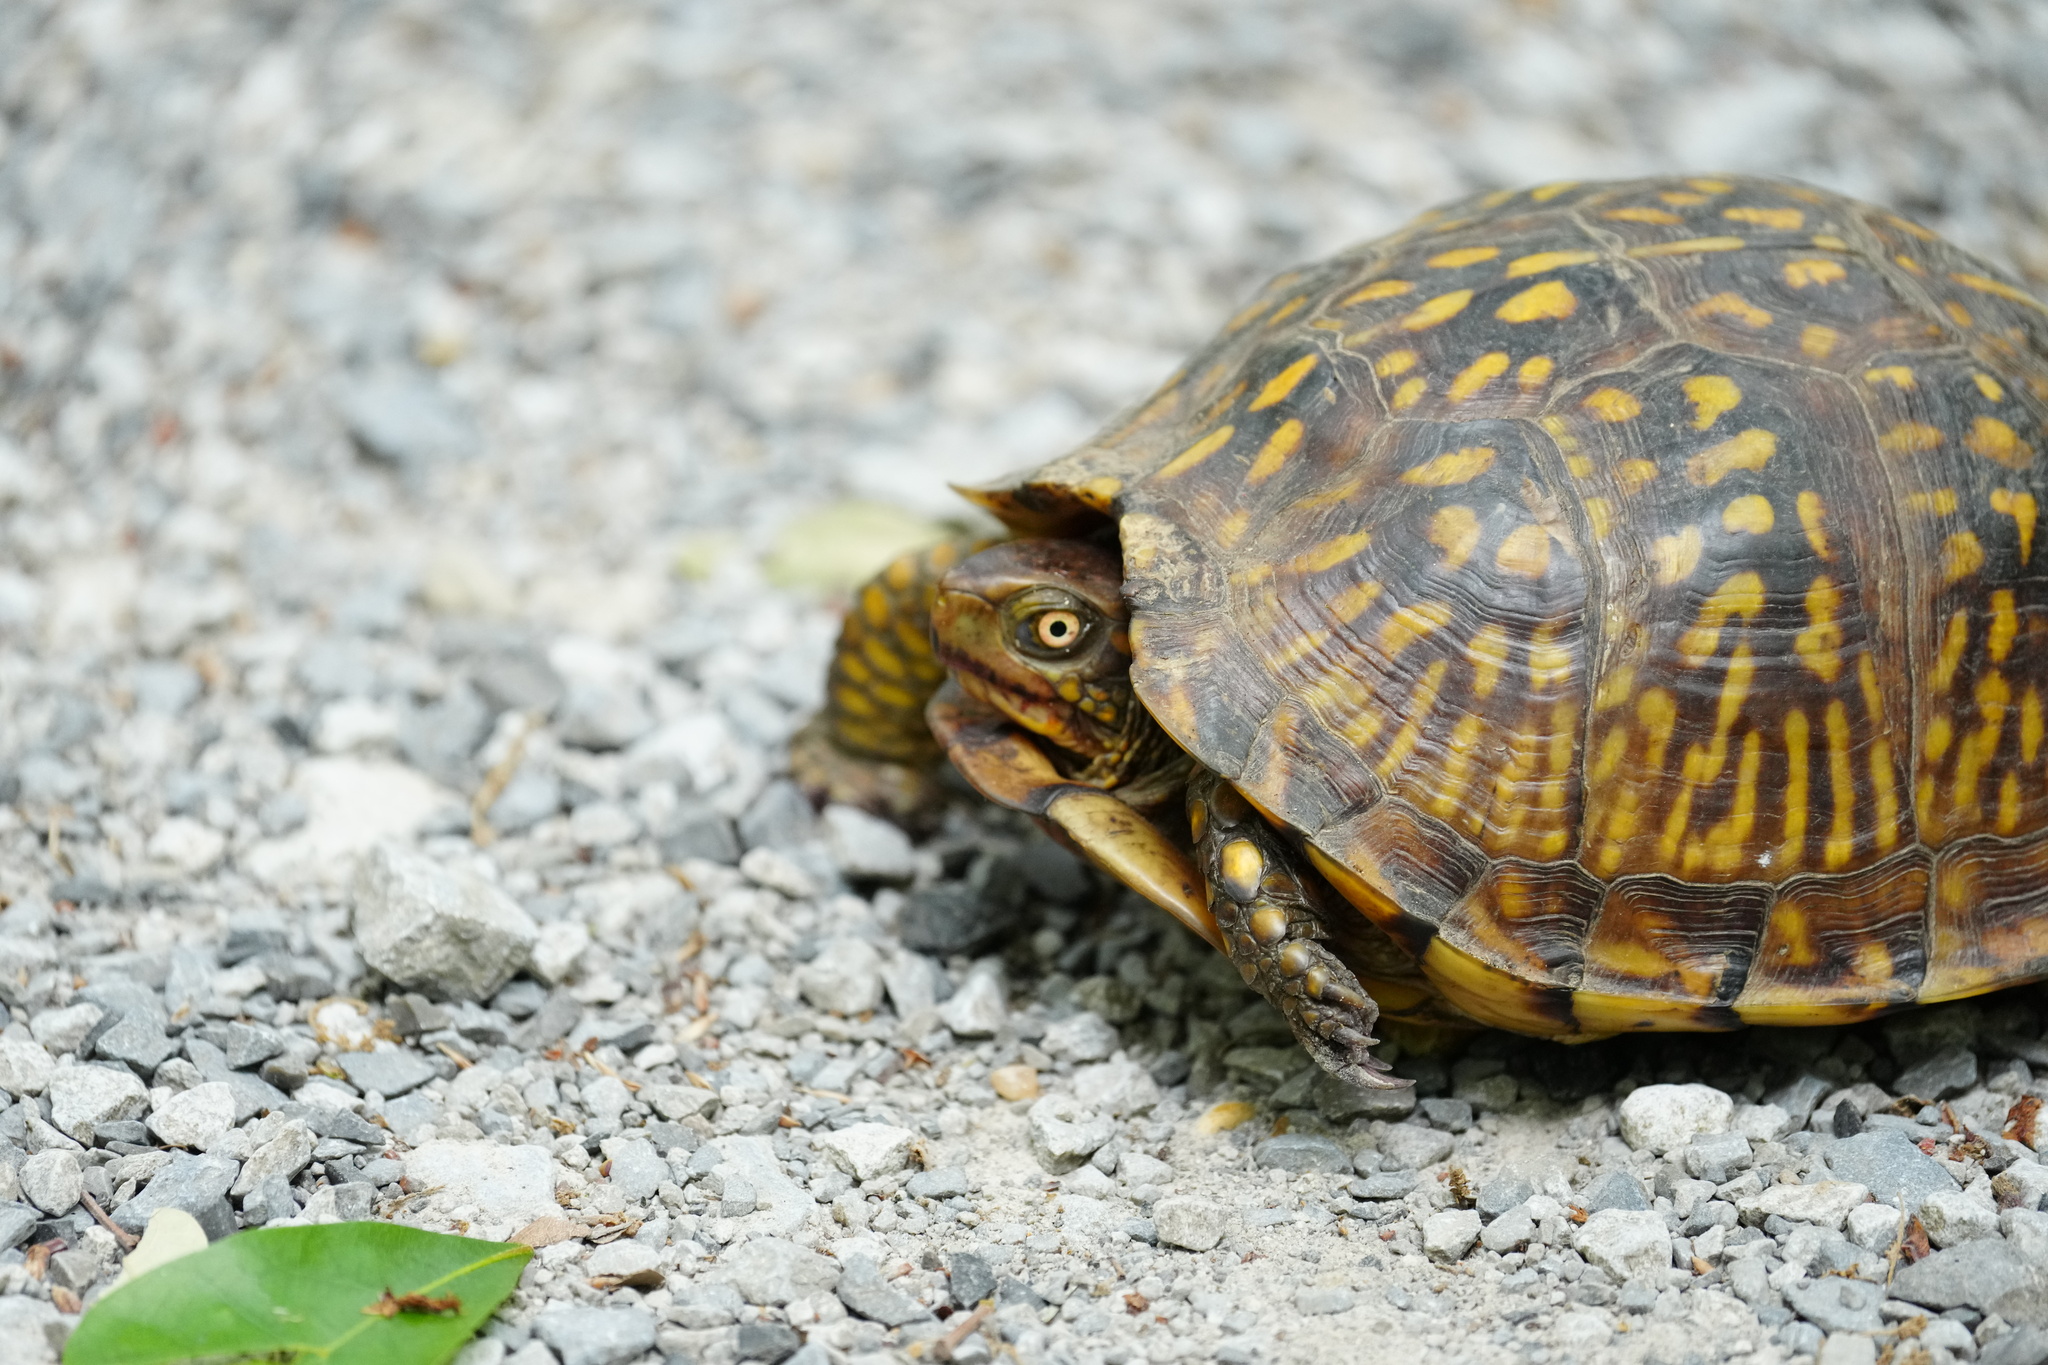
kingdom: Animalia
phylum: Chordata
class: Testudines
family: Emydidae
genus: Terrapene
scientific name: Terrapene carolina
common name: Common box turtle
